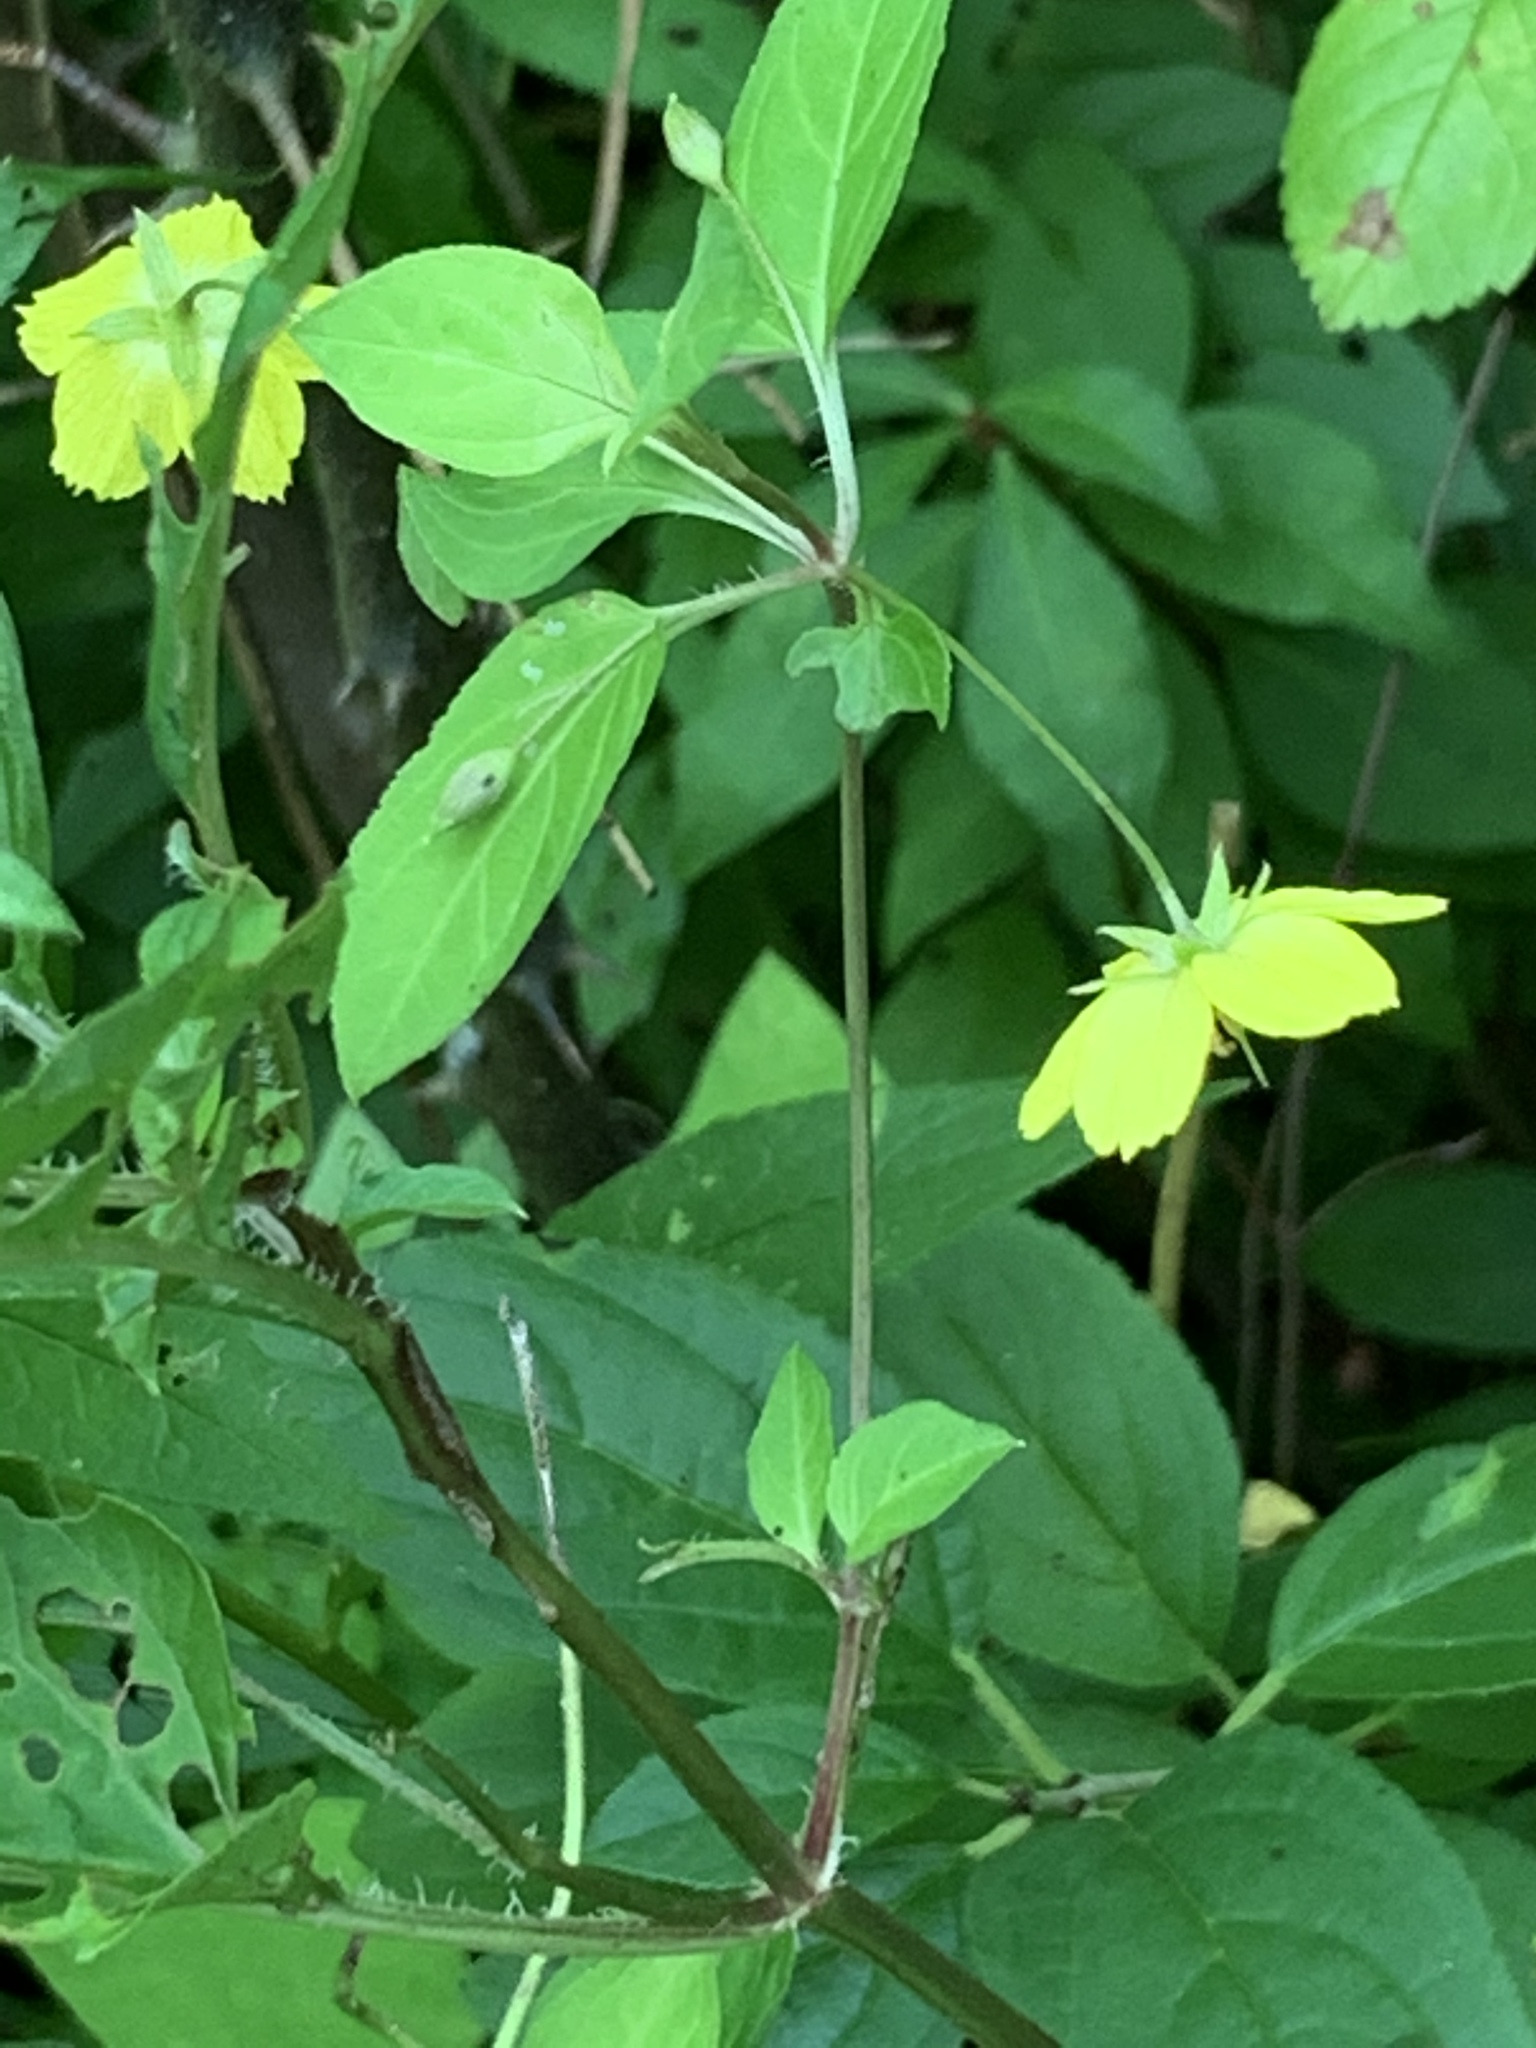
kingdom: Plantae
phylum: Tracheophyta
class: Magnoliopsida
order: Ericales
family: Primulaceae
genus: Lysimachia
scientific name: Lysimachia ciliata
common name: Fringed loosestrife
